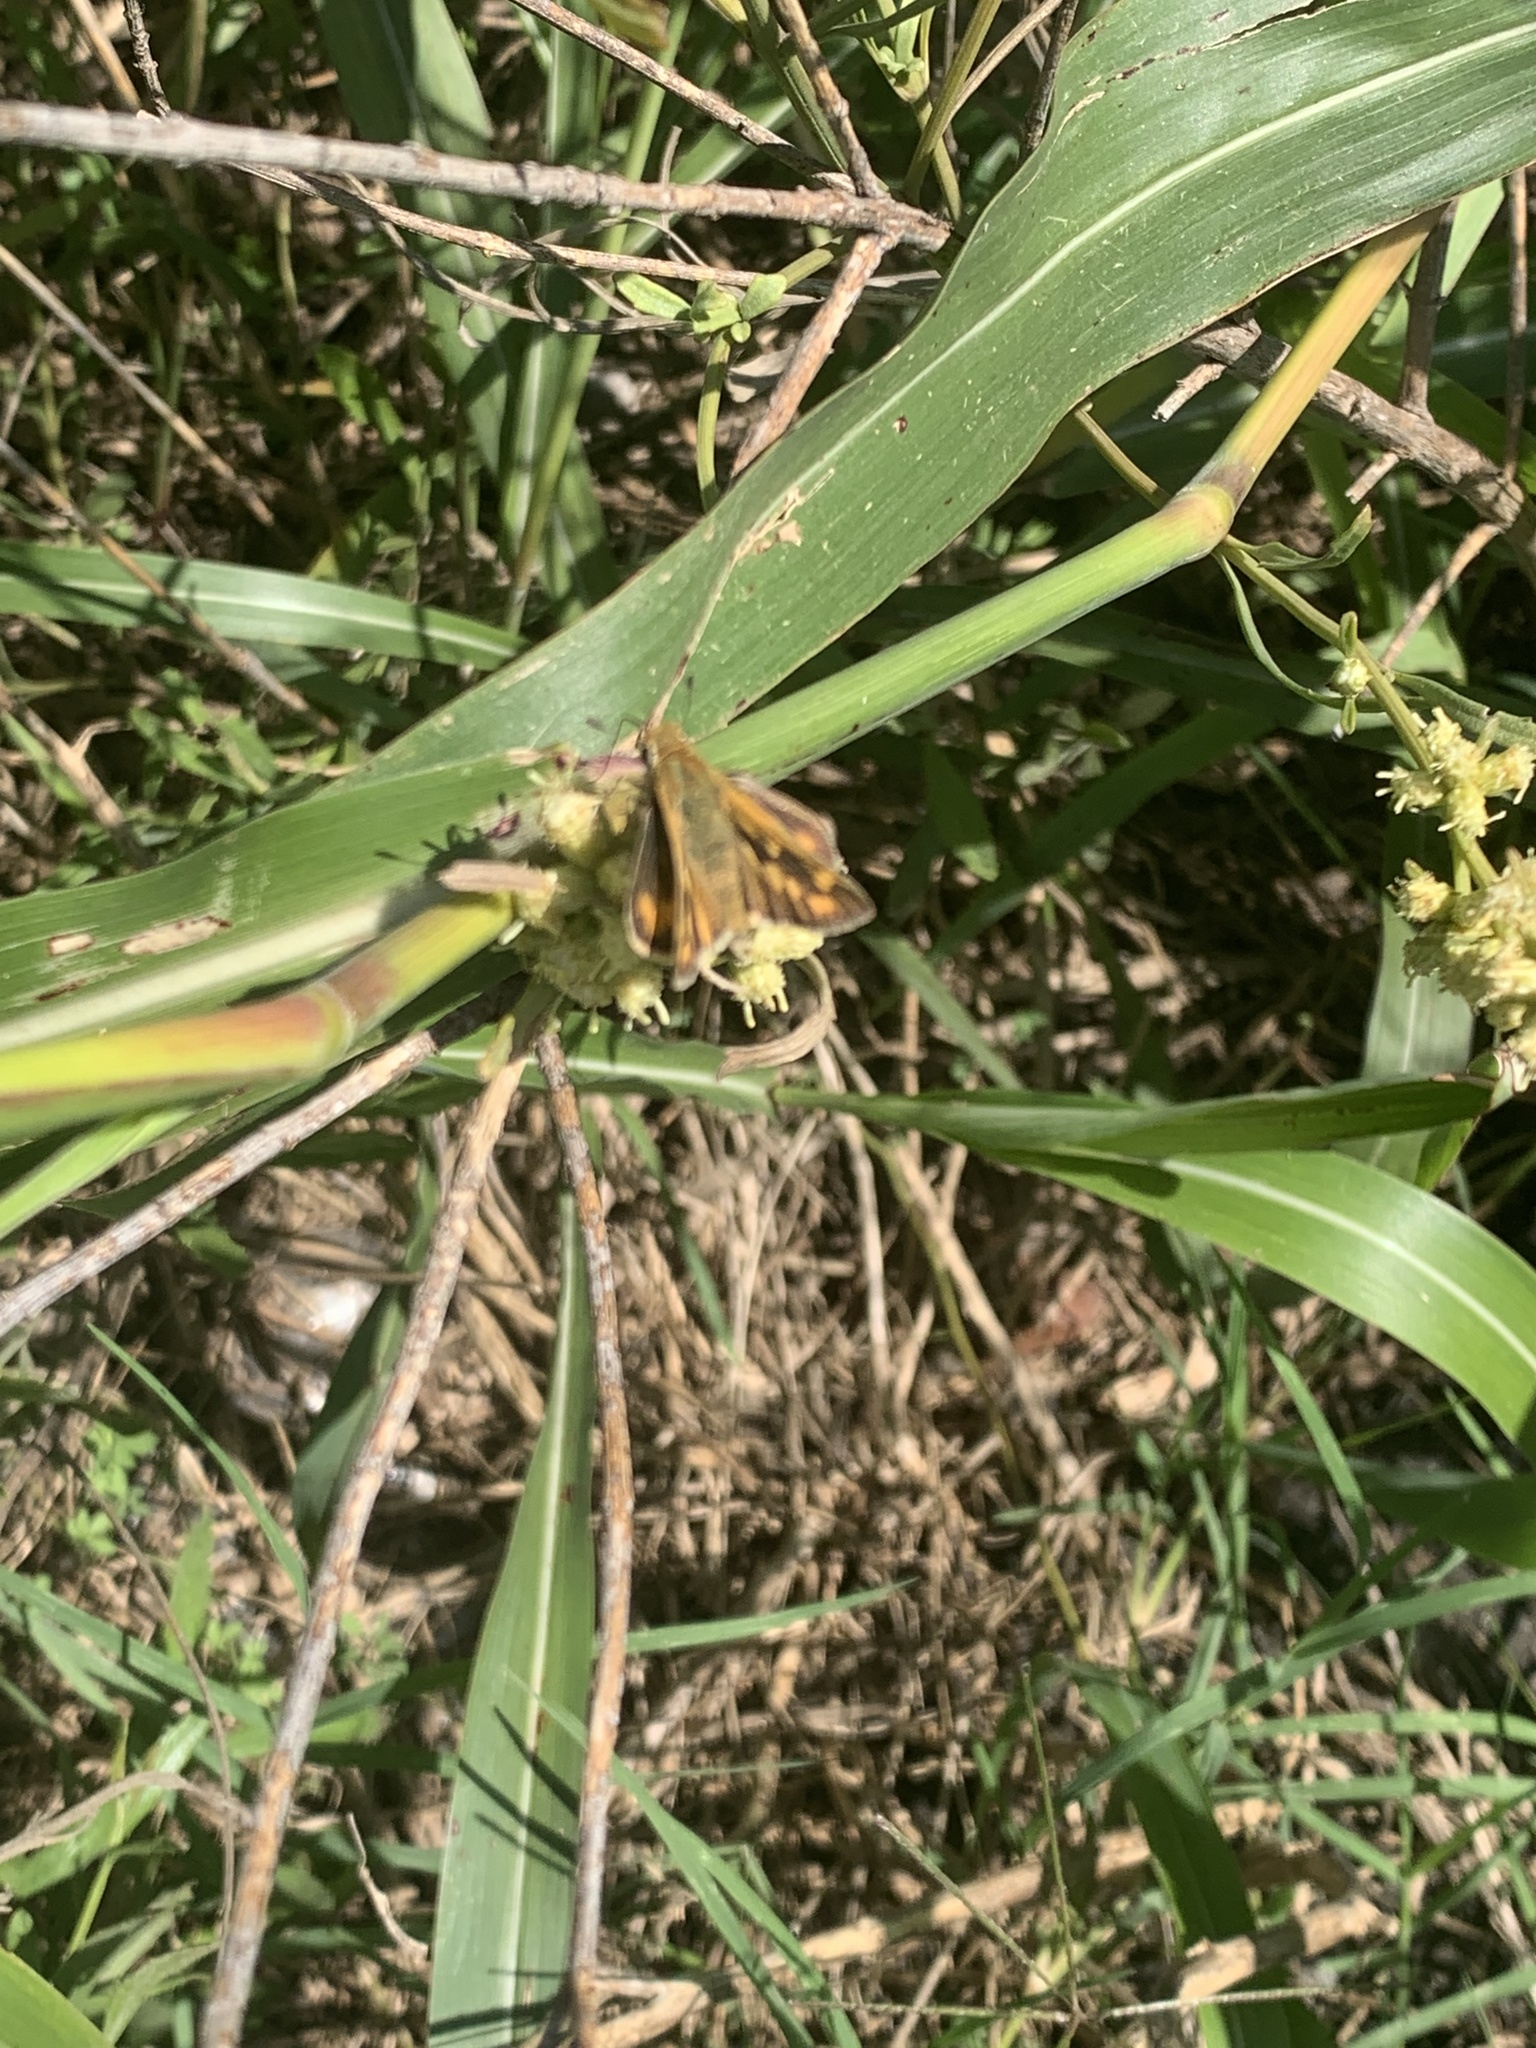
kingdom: Animalia
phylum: Arthropoda
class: Insecta
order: Lepidoptera
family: Hesperiidae
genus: Hylephila
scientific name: Hylephila phyleus
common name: Fiery skipper
